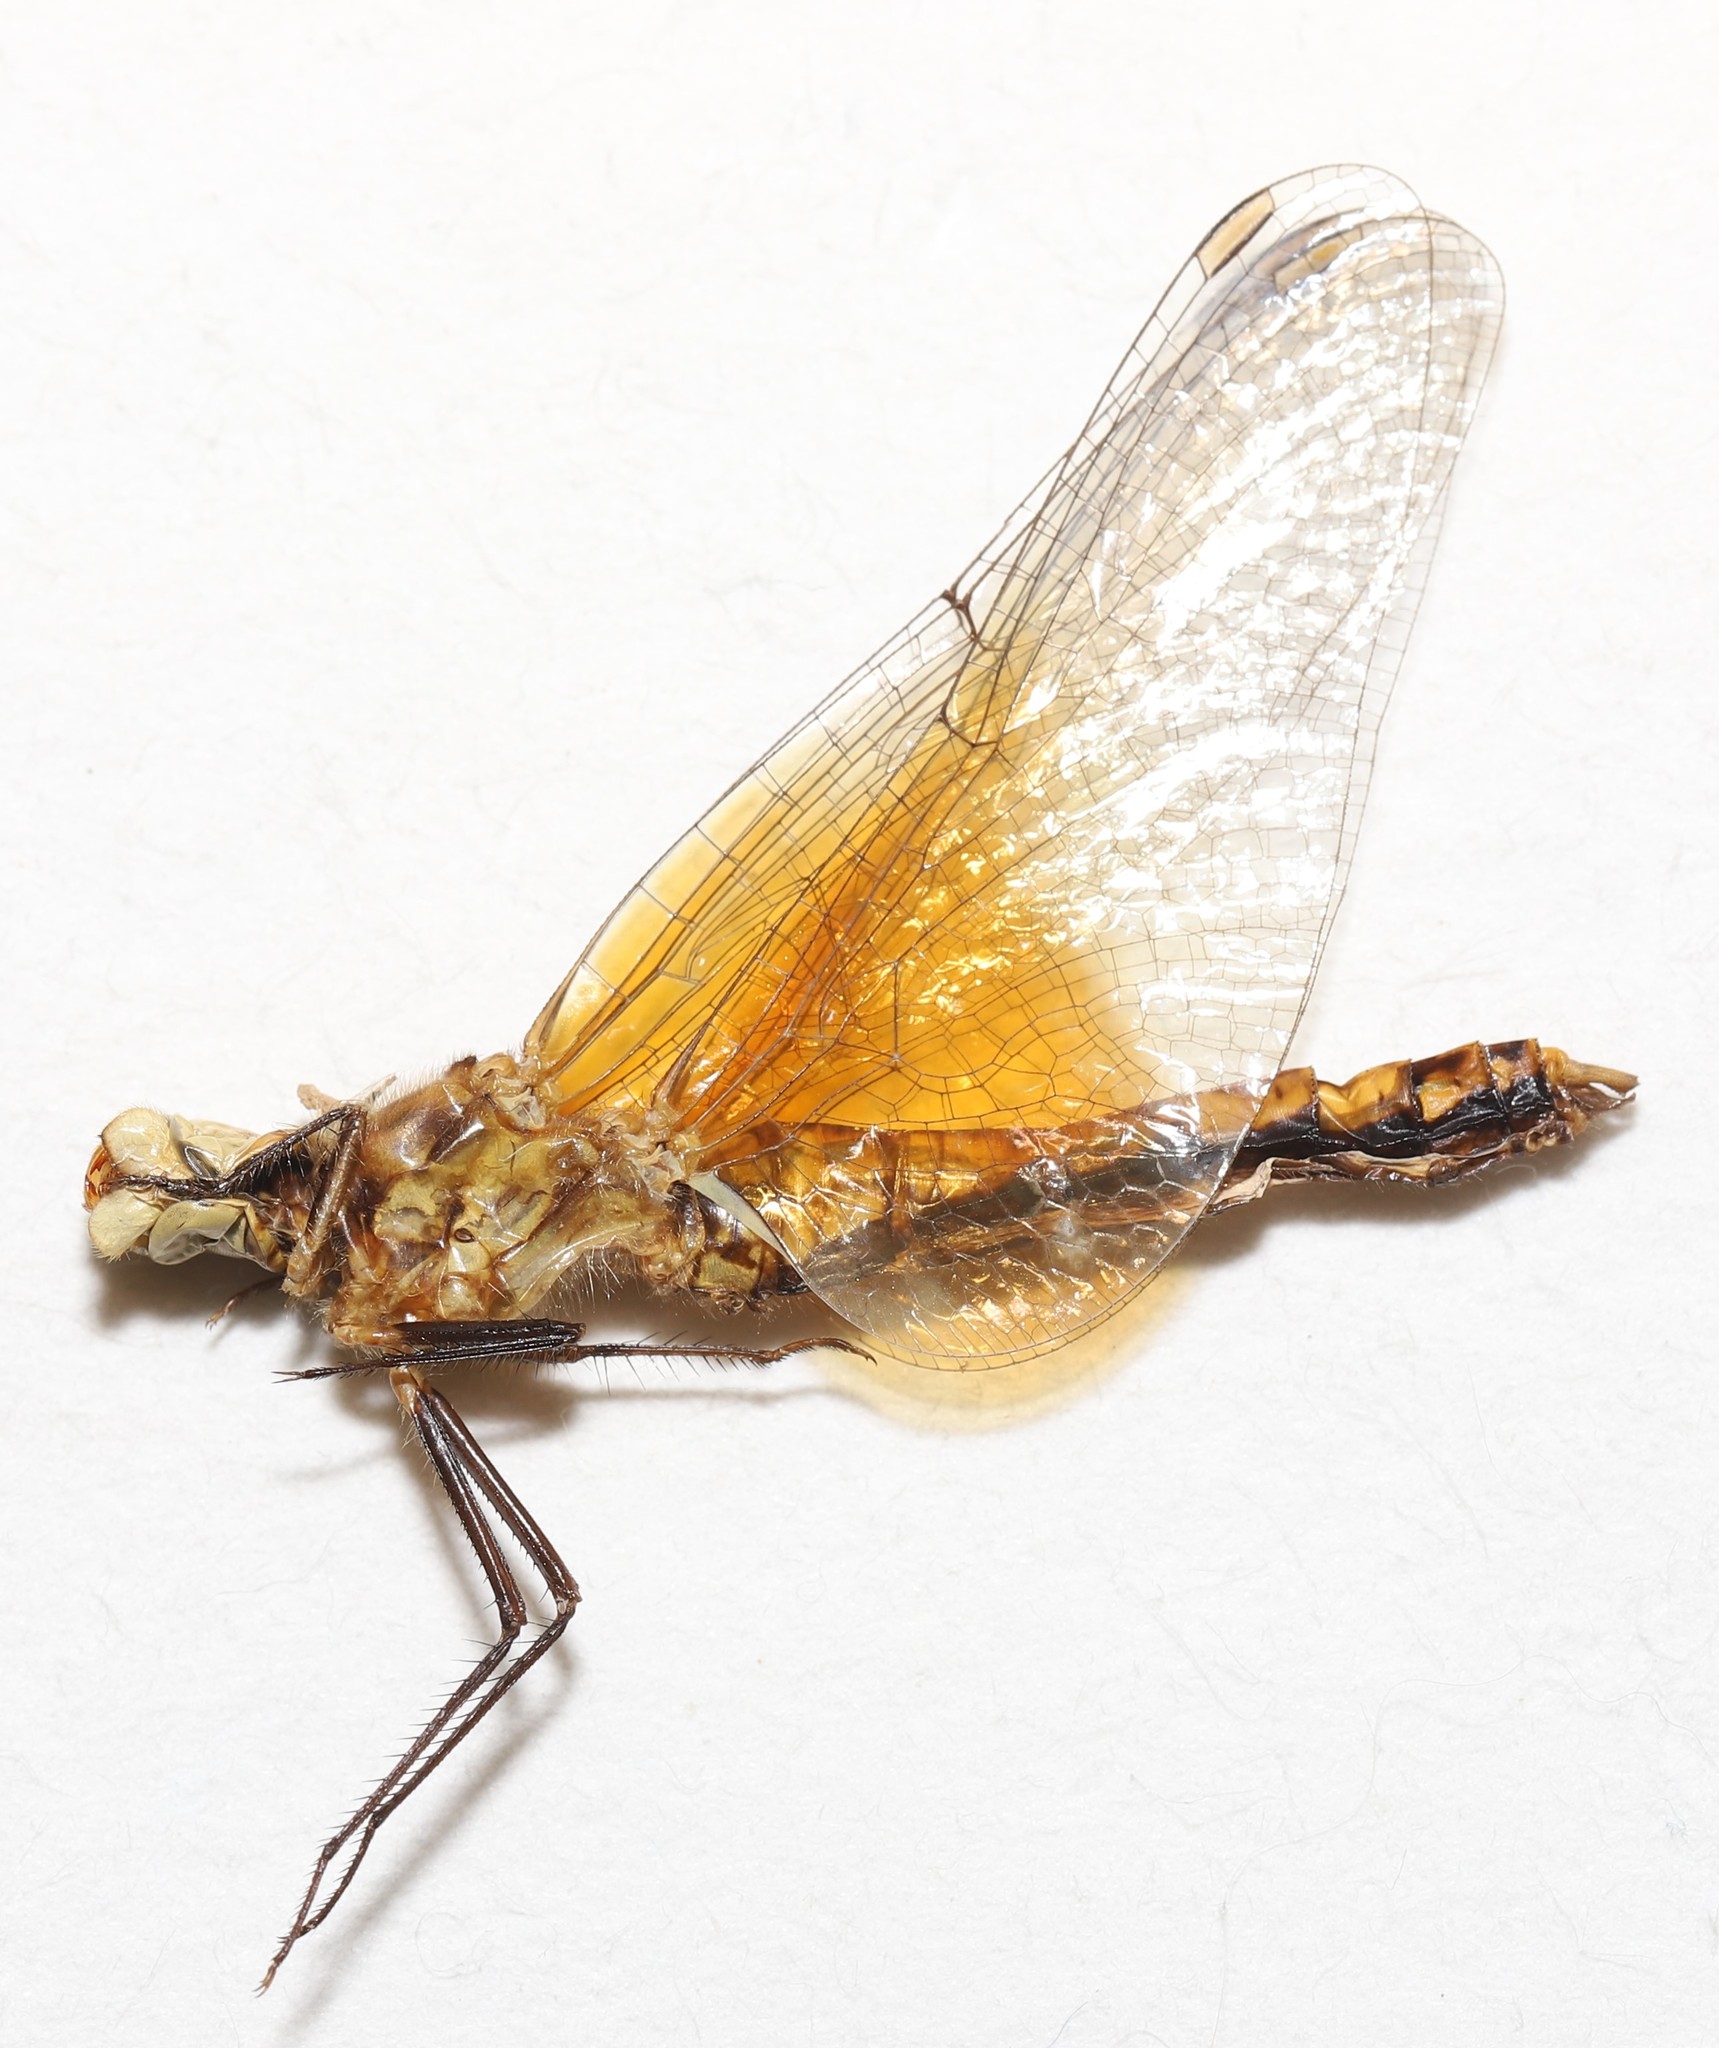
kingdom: Animalia
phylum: Arthropoda
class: Insecta
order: Odonata
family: Libellulidae
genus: Sympetrum
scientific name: Sympetrum semicinctum
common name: Band-winged meadowhawk
